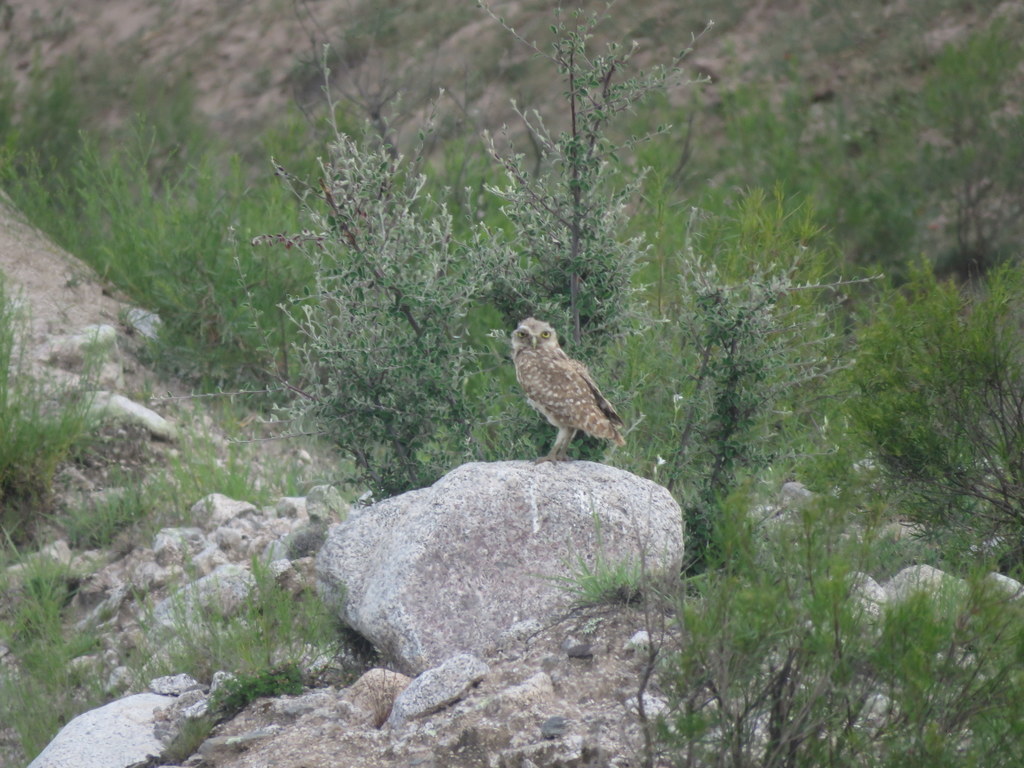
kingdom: Animalia
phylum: Chordata
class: Aves
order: Strigiformes
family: Strigidae
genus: Athene
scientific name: Athene cunicularia
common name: Burrowing owl
